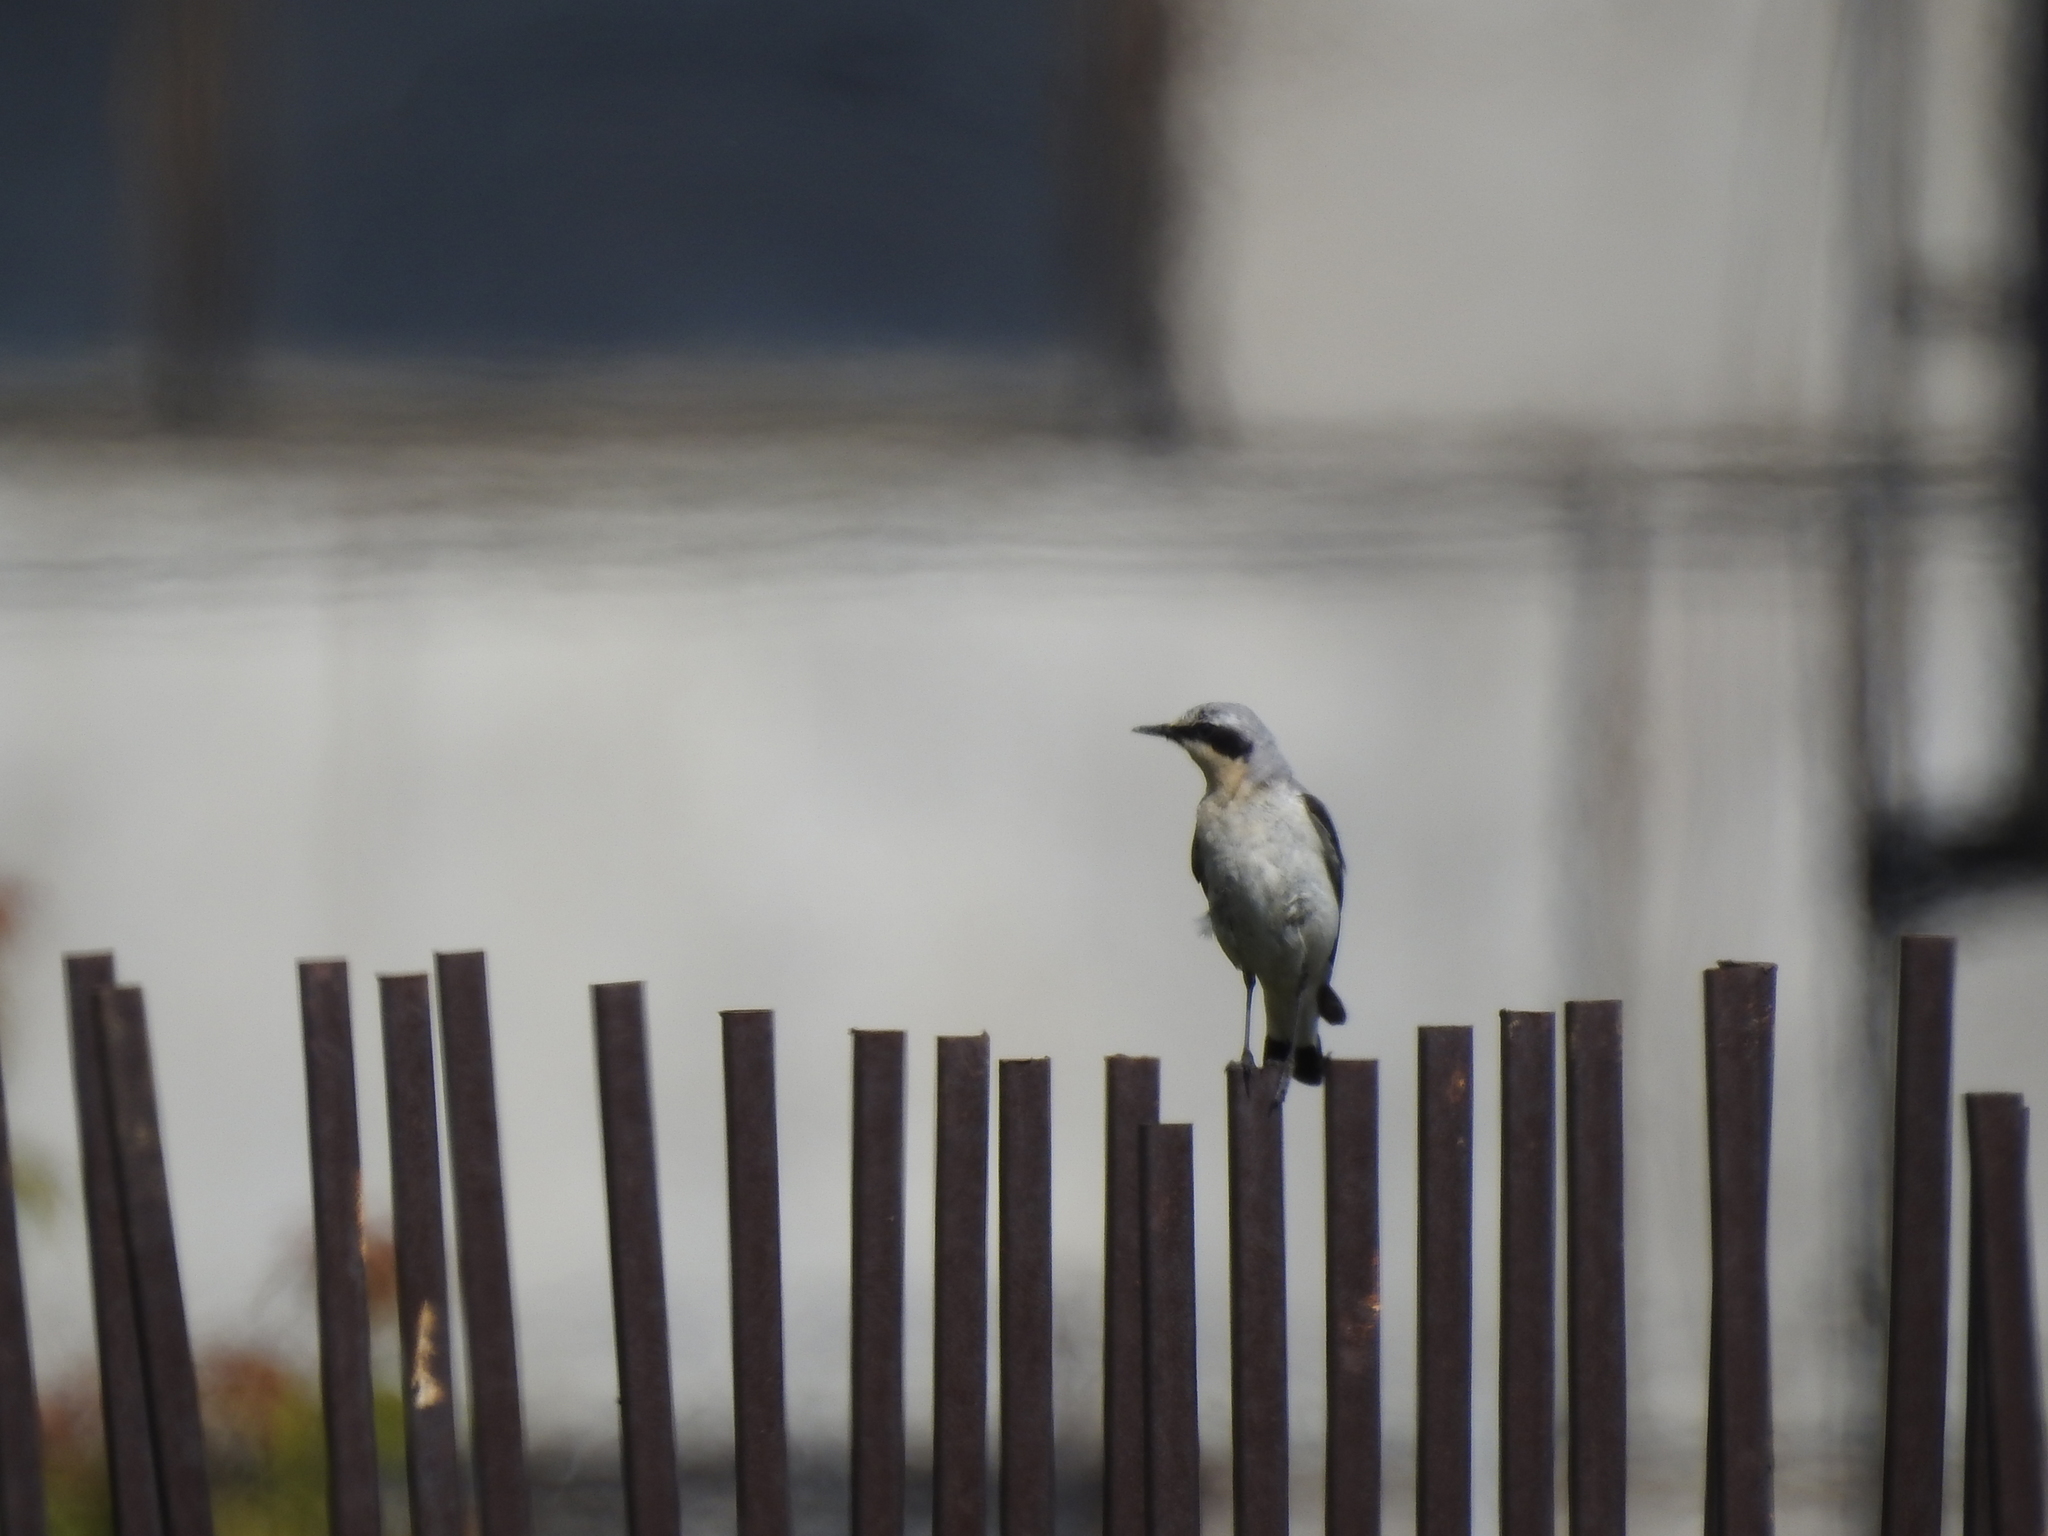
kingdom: Animalia
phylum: Chordata
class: Aves
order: Passeriformes
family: Muscicapidae
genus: Oenanthe
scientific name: Oenanthe oenanthe
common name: Northern wheatear
